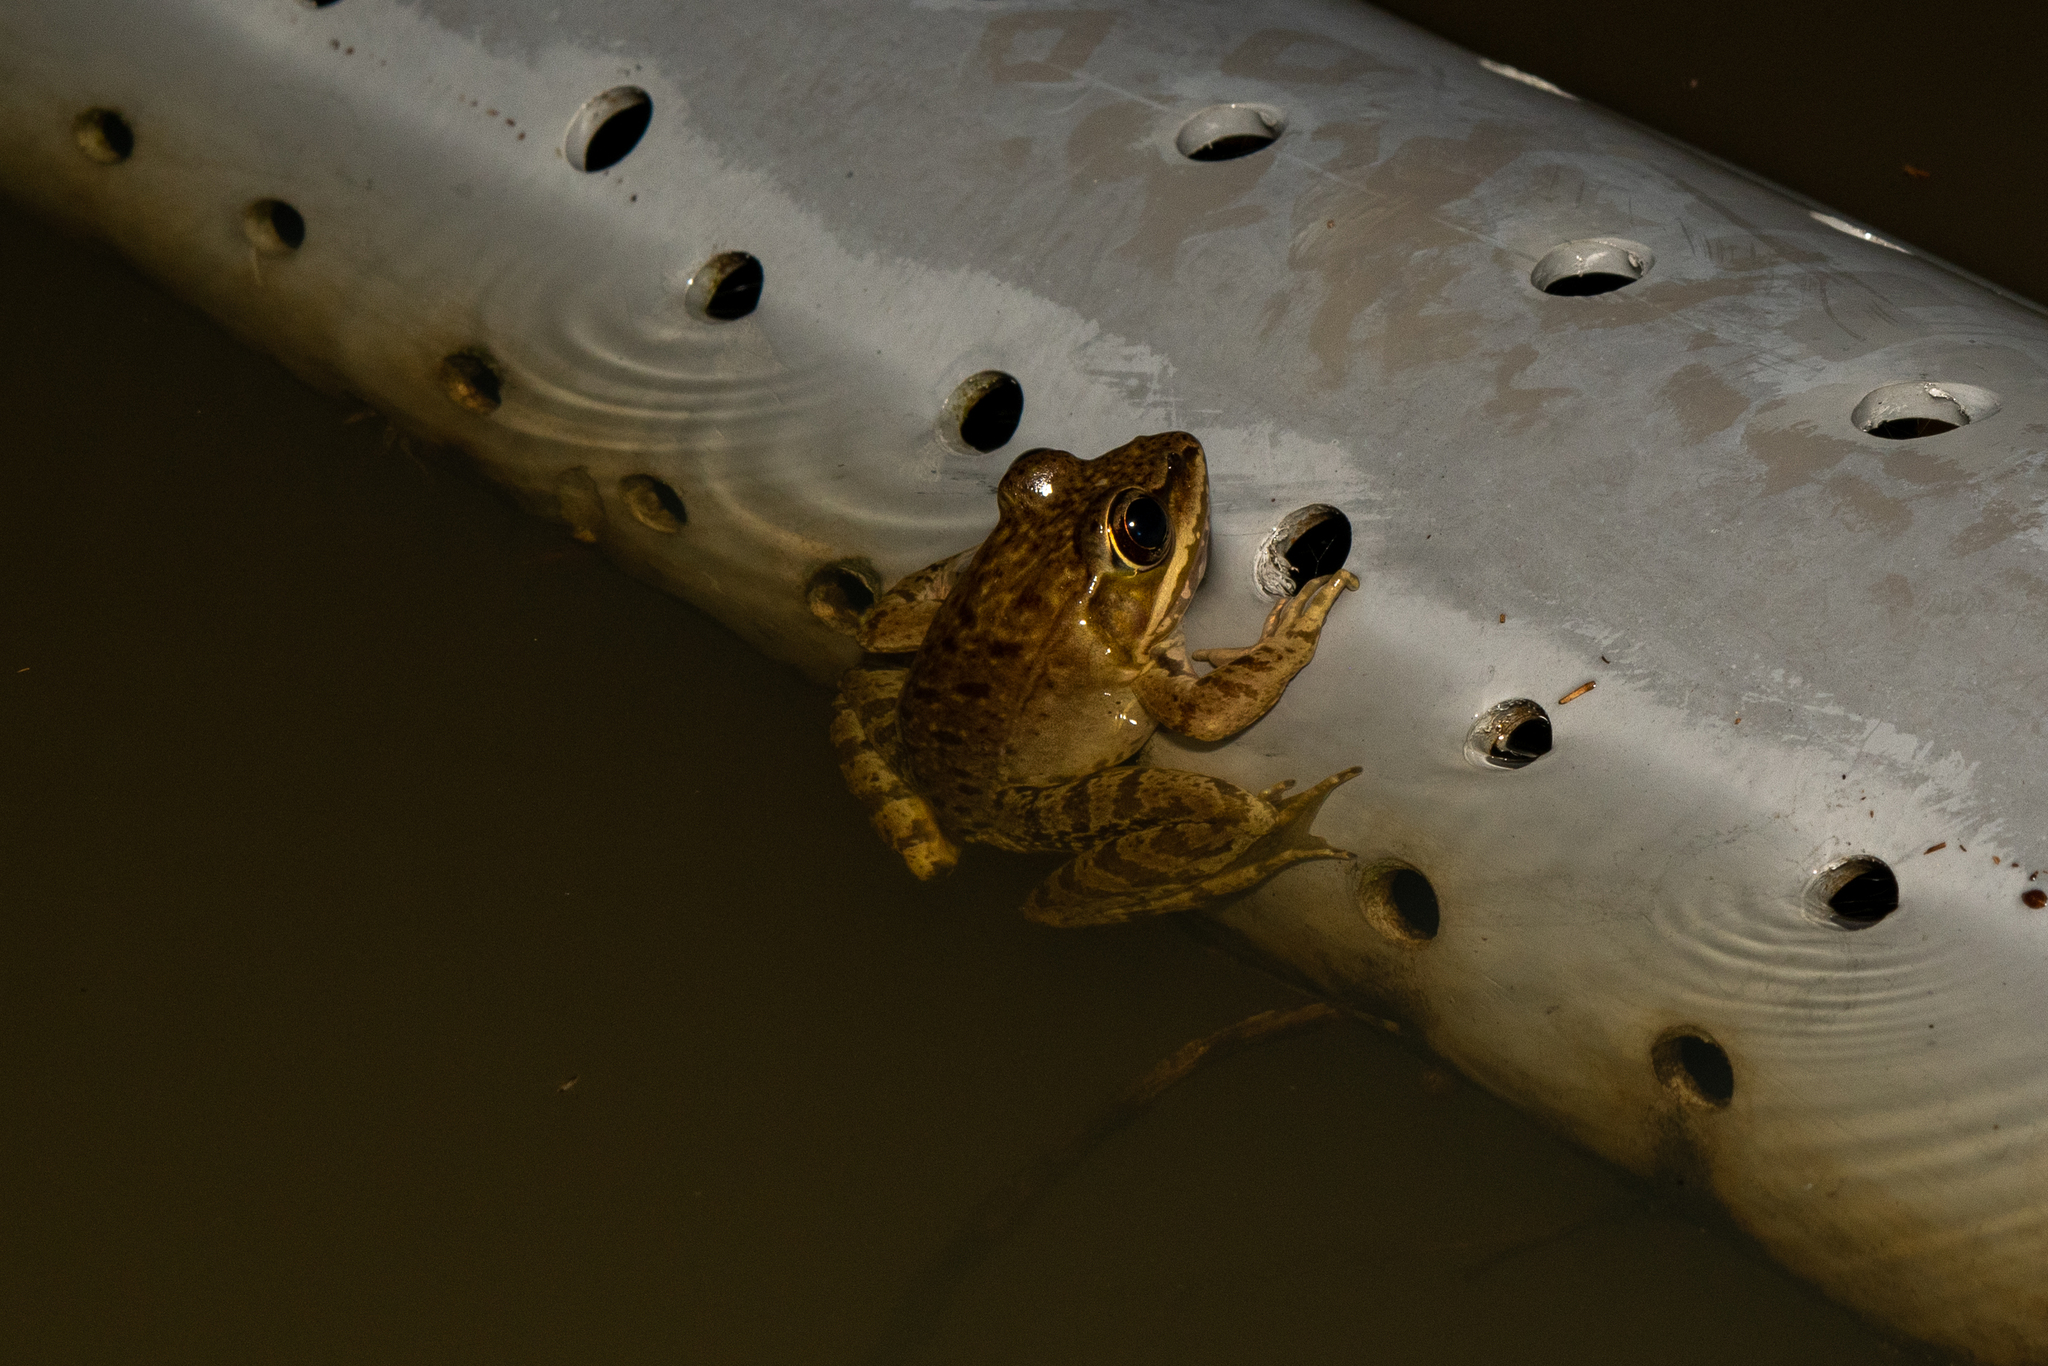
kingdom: Animalia
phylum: Chordata
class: Amphibia
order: Anura
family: Ranidae
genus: Lithobates
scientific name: Lithobates maculatus
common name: Highland frog
